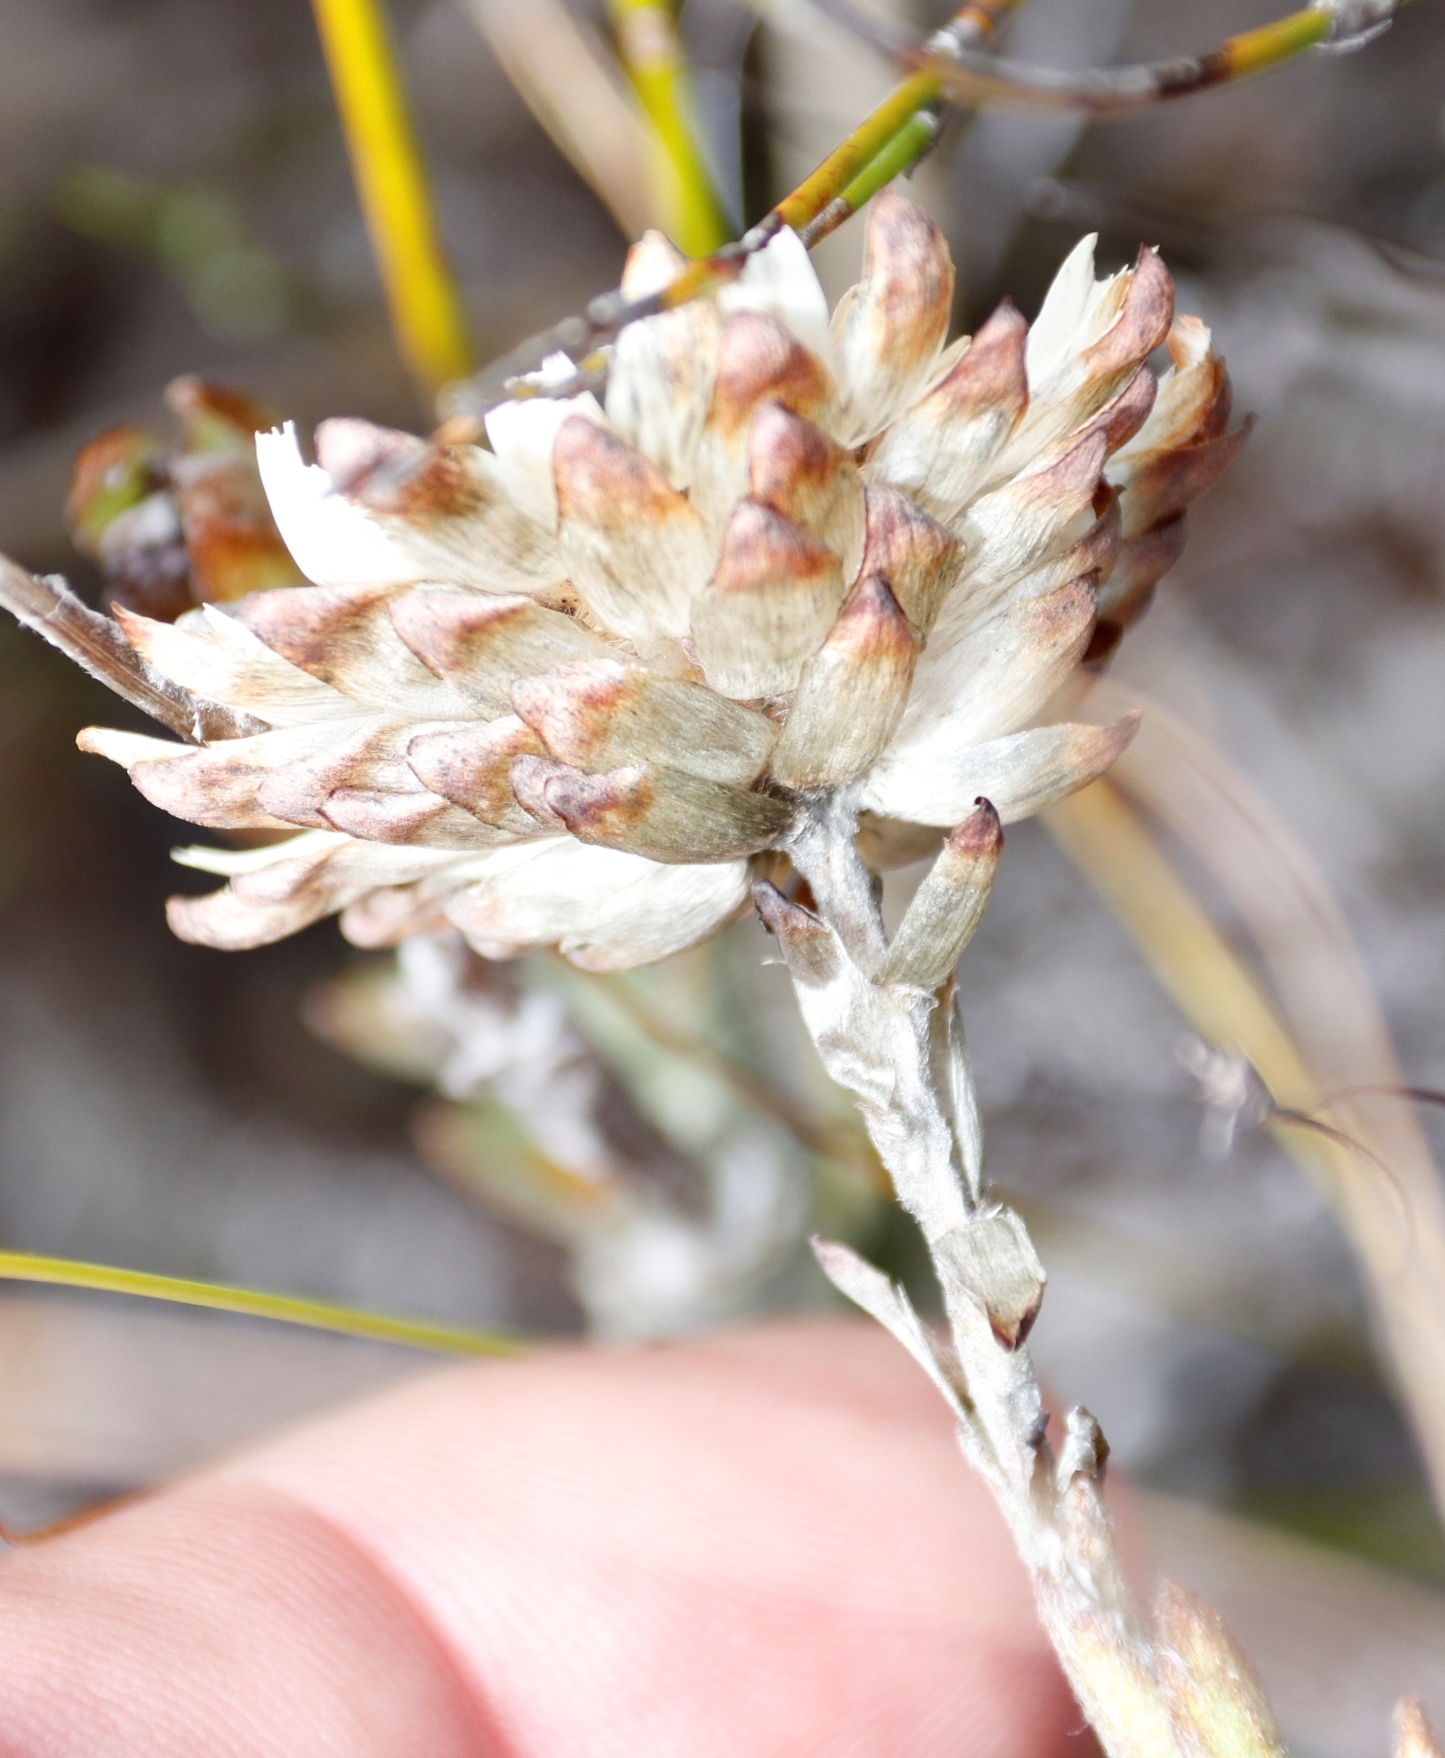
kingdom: Plantae
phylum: Tracheophyta
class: Magnoliopsida
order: Asterales
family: Asteraceae
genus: Syncarpha
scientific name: Syncarpha variegata
